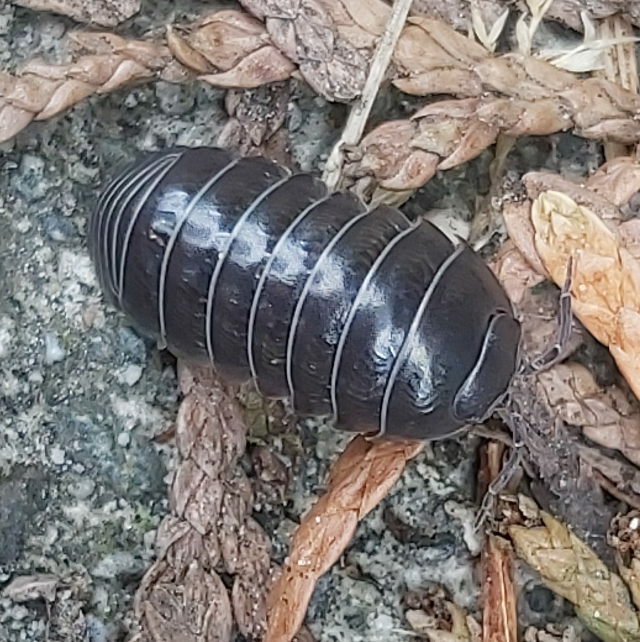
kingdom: Animalia
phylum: Arthropoda
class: Malacostraca
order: Isopoda
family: Armadillidiidae
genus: Armadillidium
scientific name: Armadillidium vulgare
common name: Common pill woodlouse
